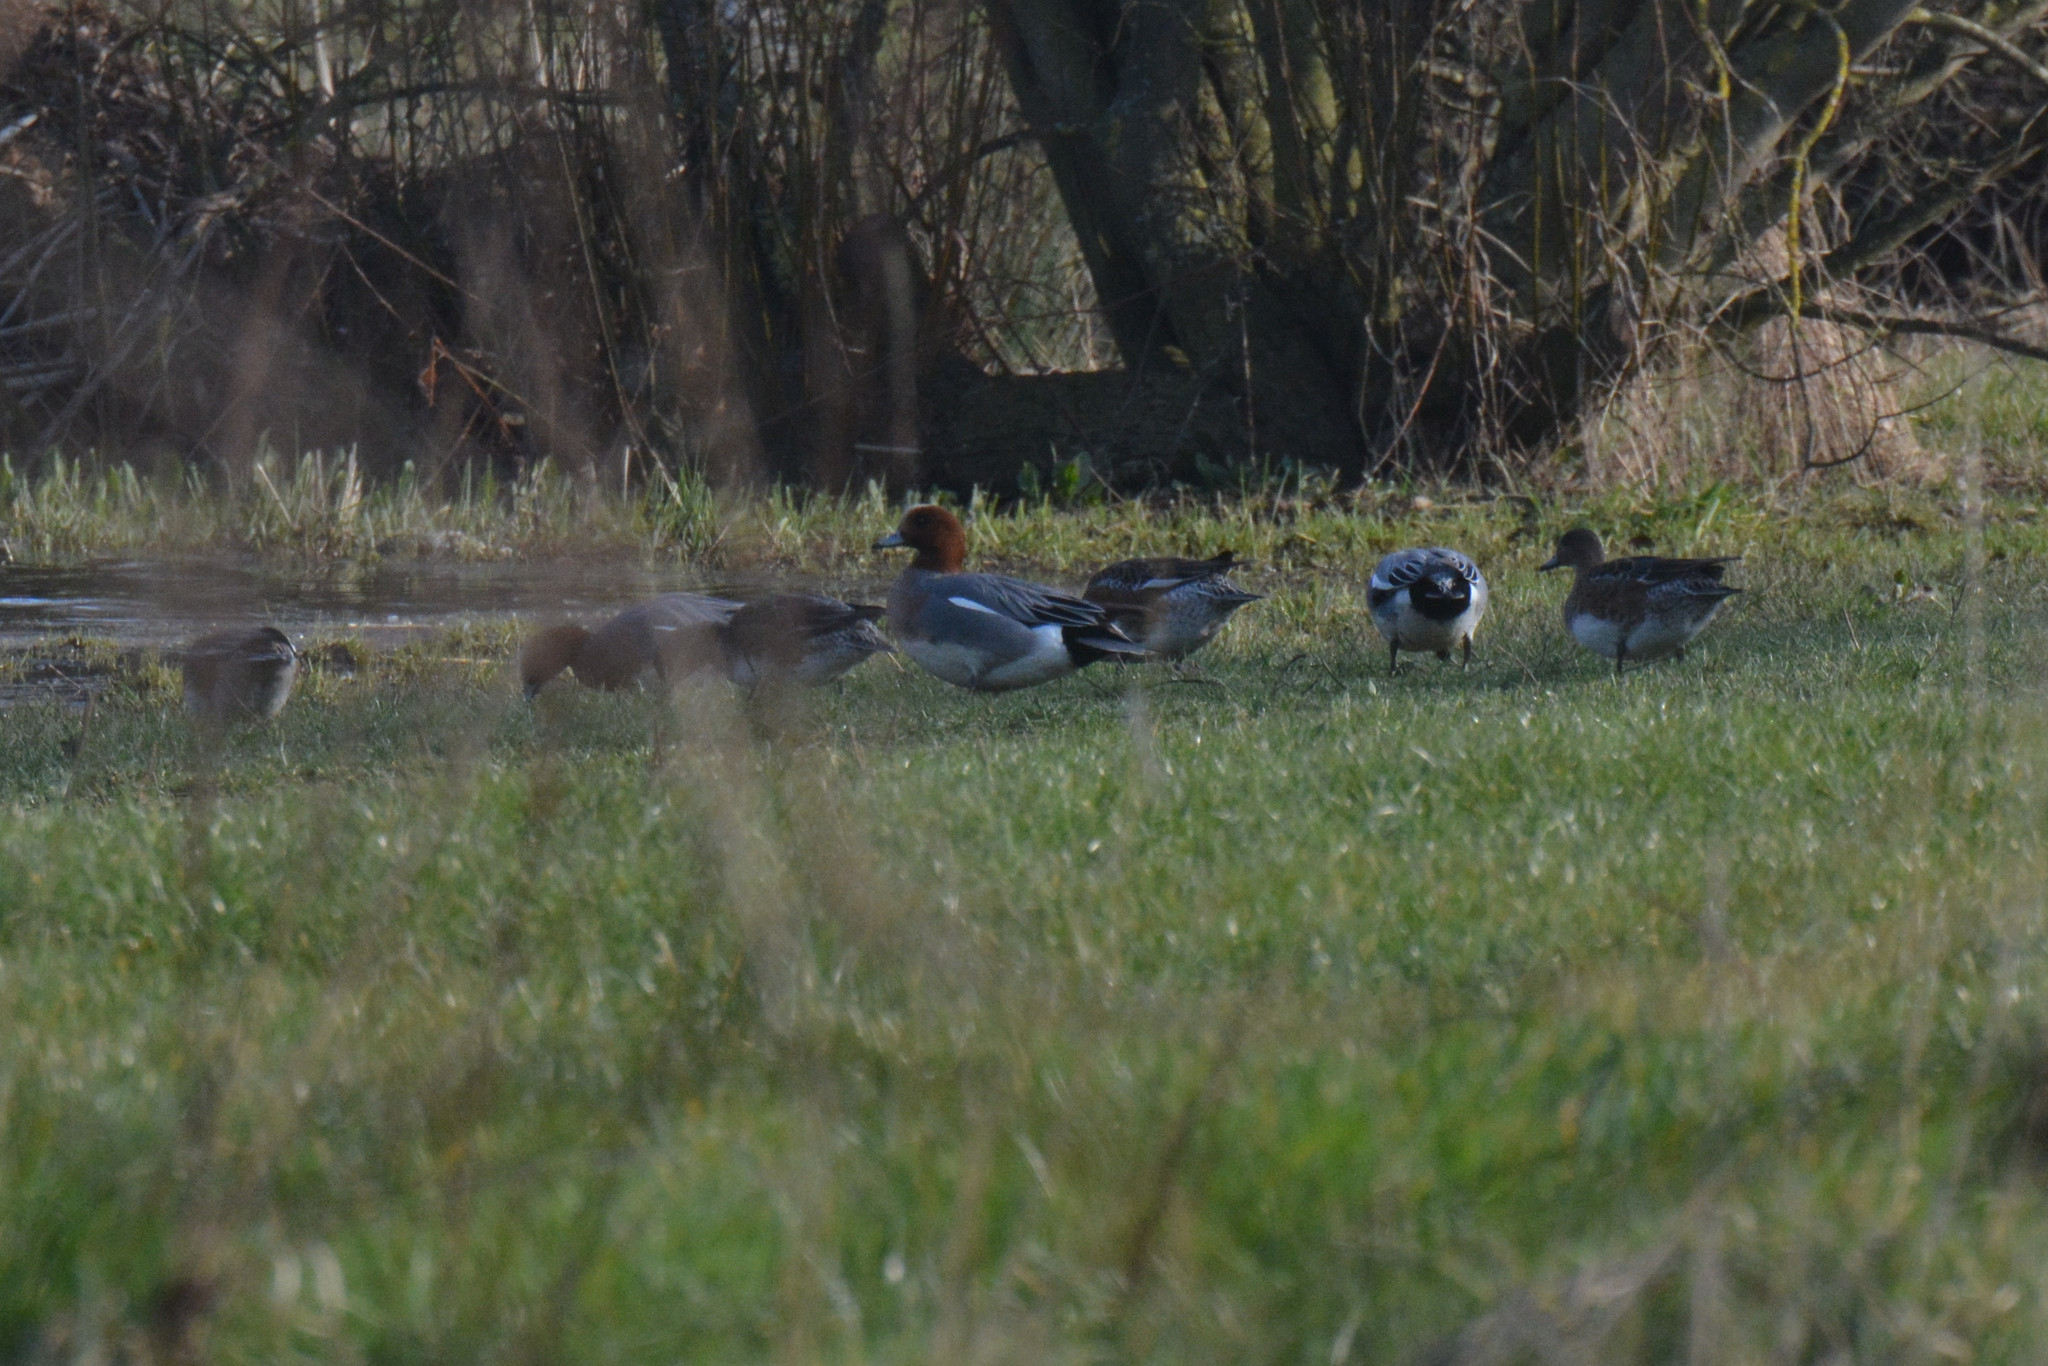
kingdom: Animalia
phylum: Chordata
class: Aves
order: Anseriformes
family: Anatidae
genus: Mareca
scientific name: Mareca penelope
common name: Eurasian wigeon
